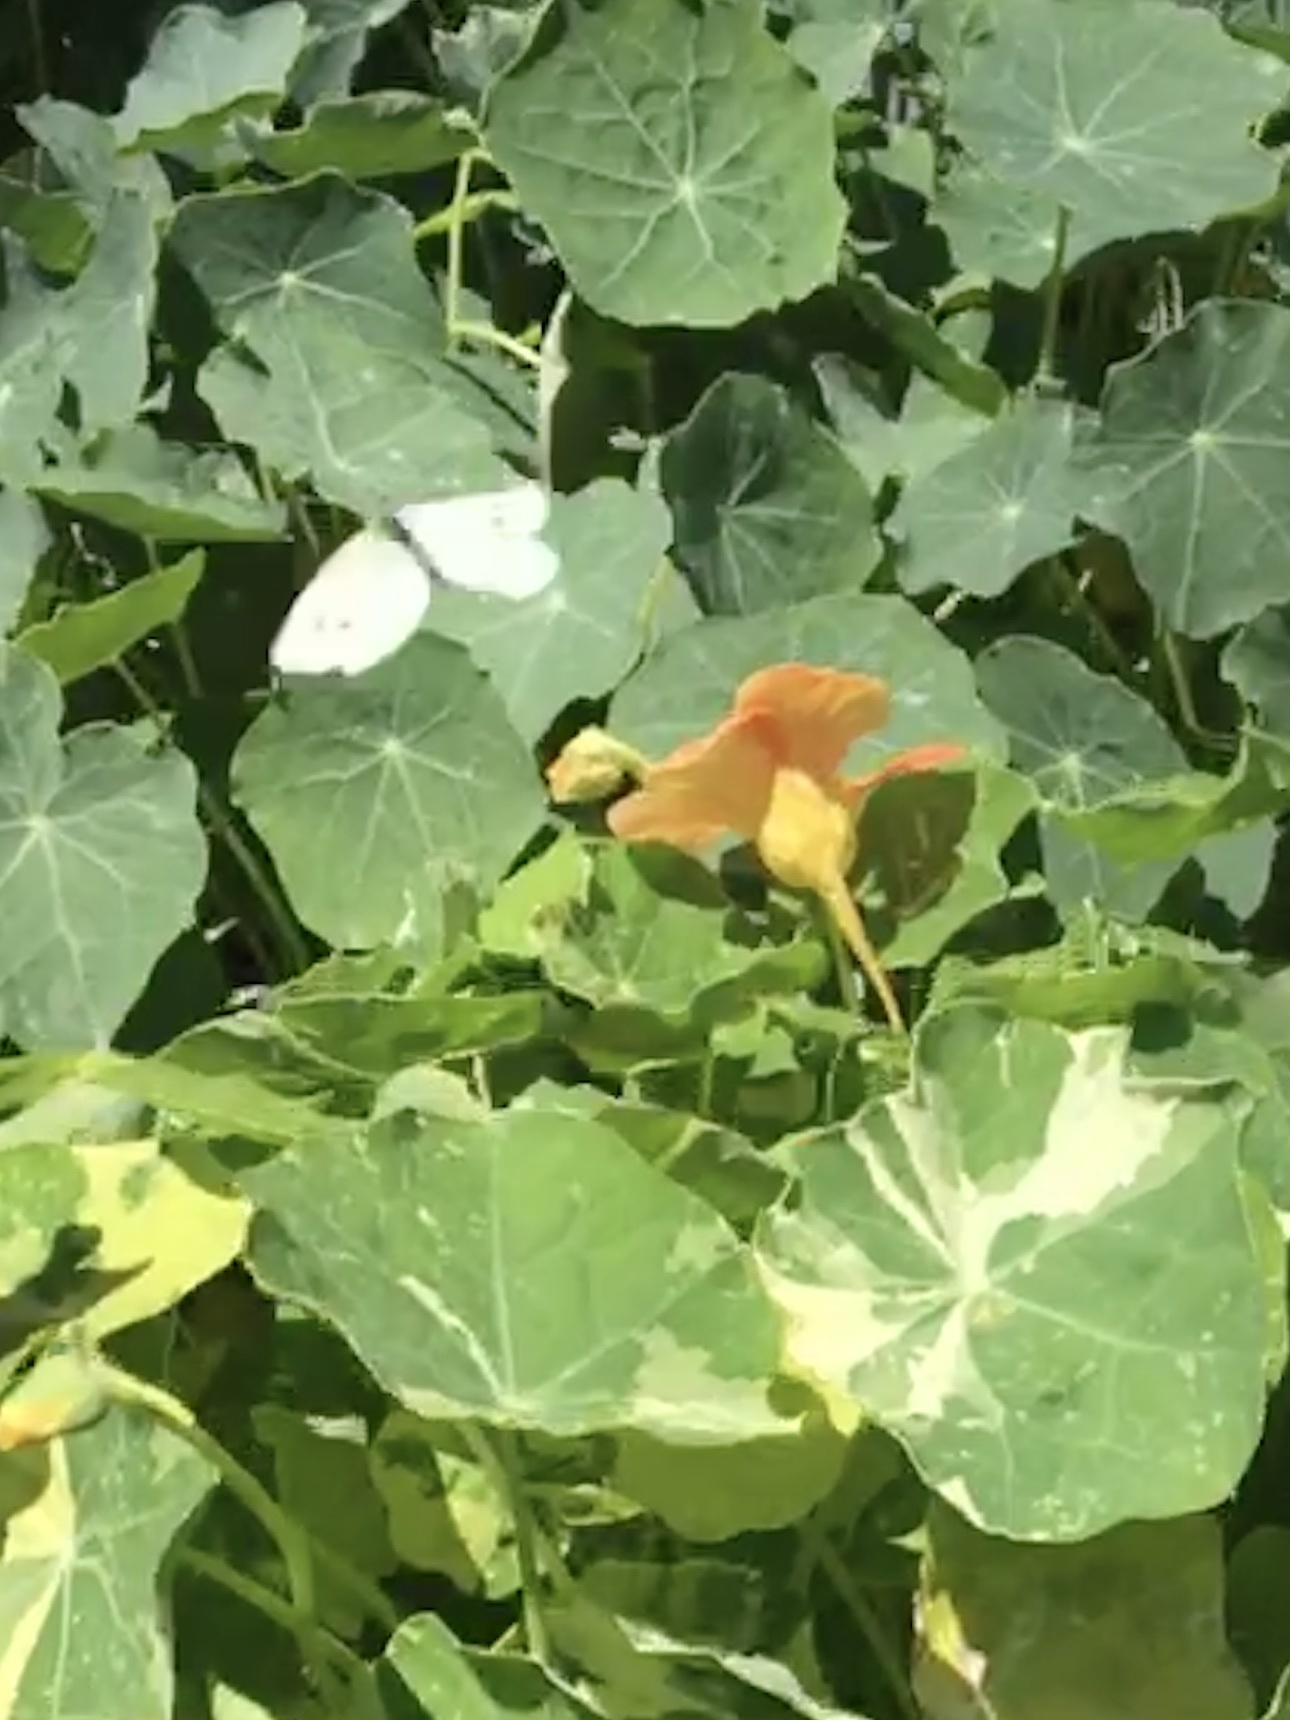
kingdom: Animalia
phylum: Arthropoda
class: Insecta
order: Lepidoptera
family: Pieridae
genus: Pieris
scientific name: Pieris rapae
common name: Small white
